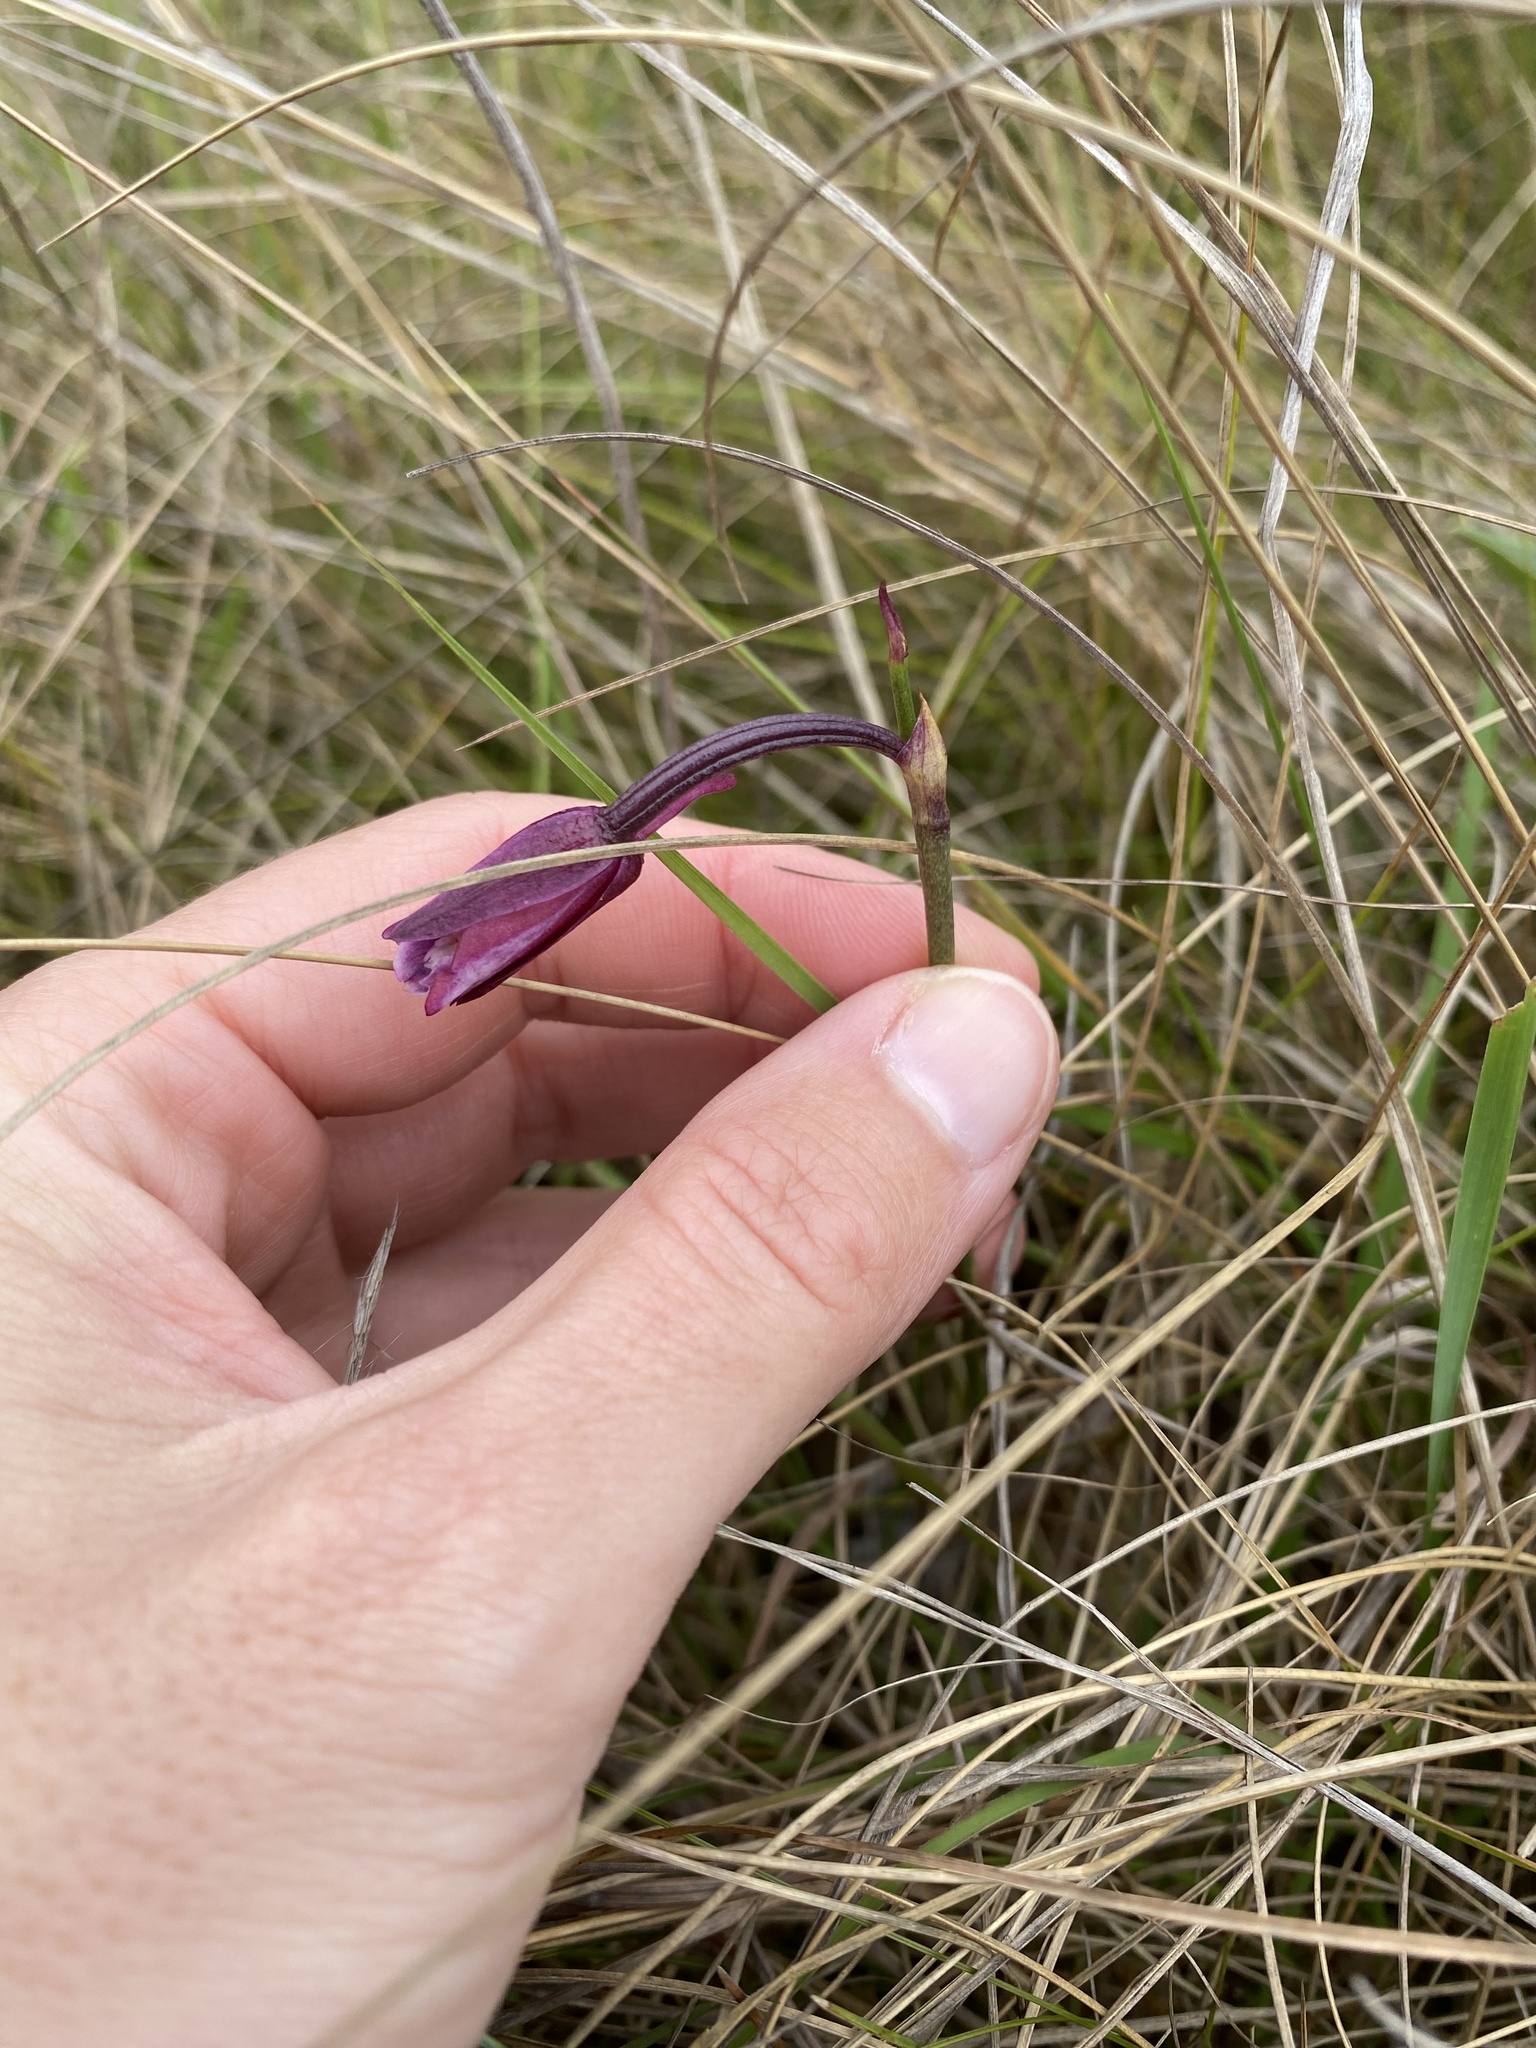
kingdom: Plantae
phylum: Tracheophyta
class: Liliopsida
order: Asparagales
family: Orchidaceae
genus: Eulophia
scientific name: Eulophia hians
